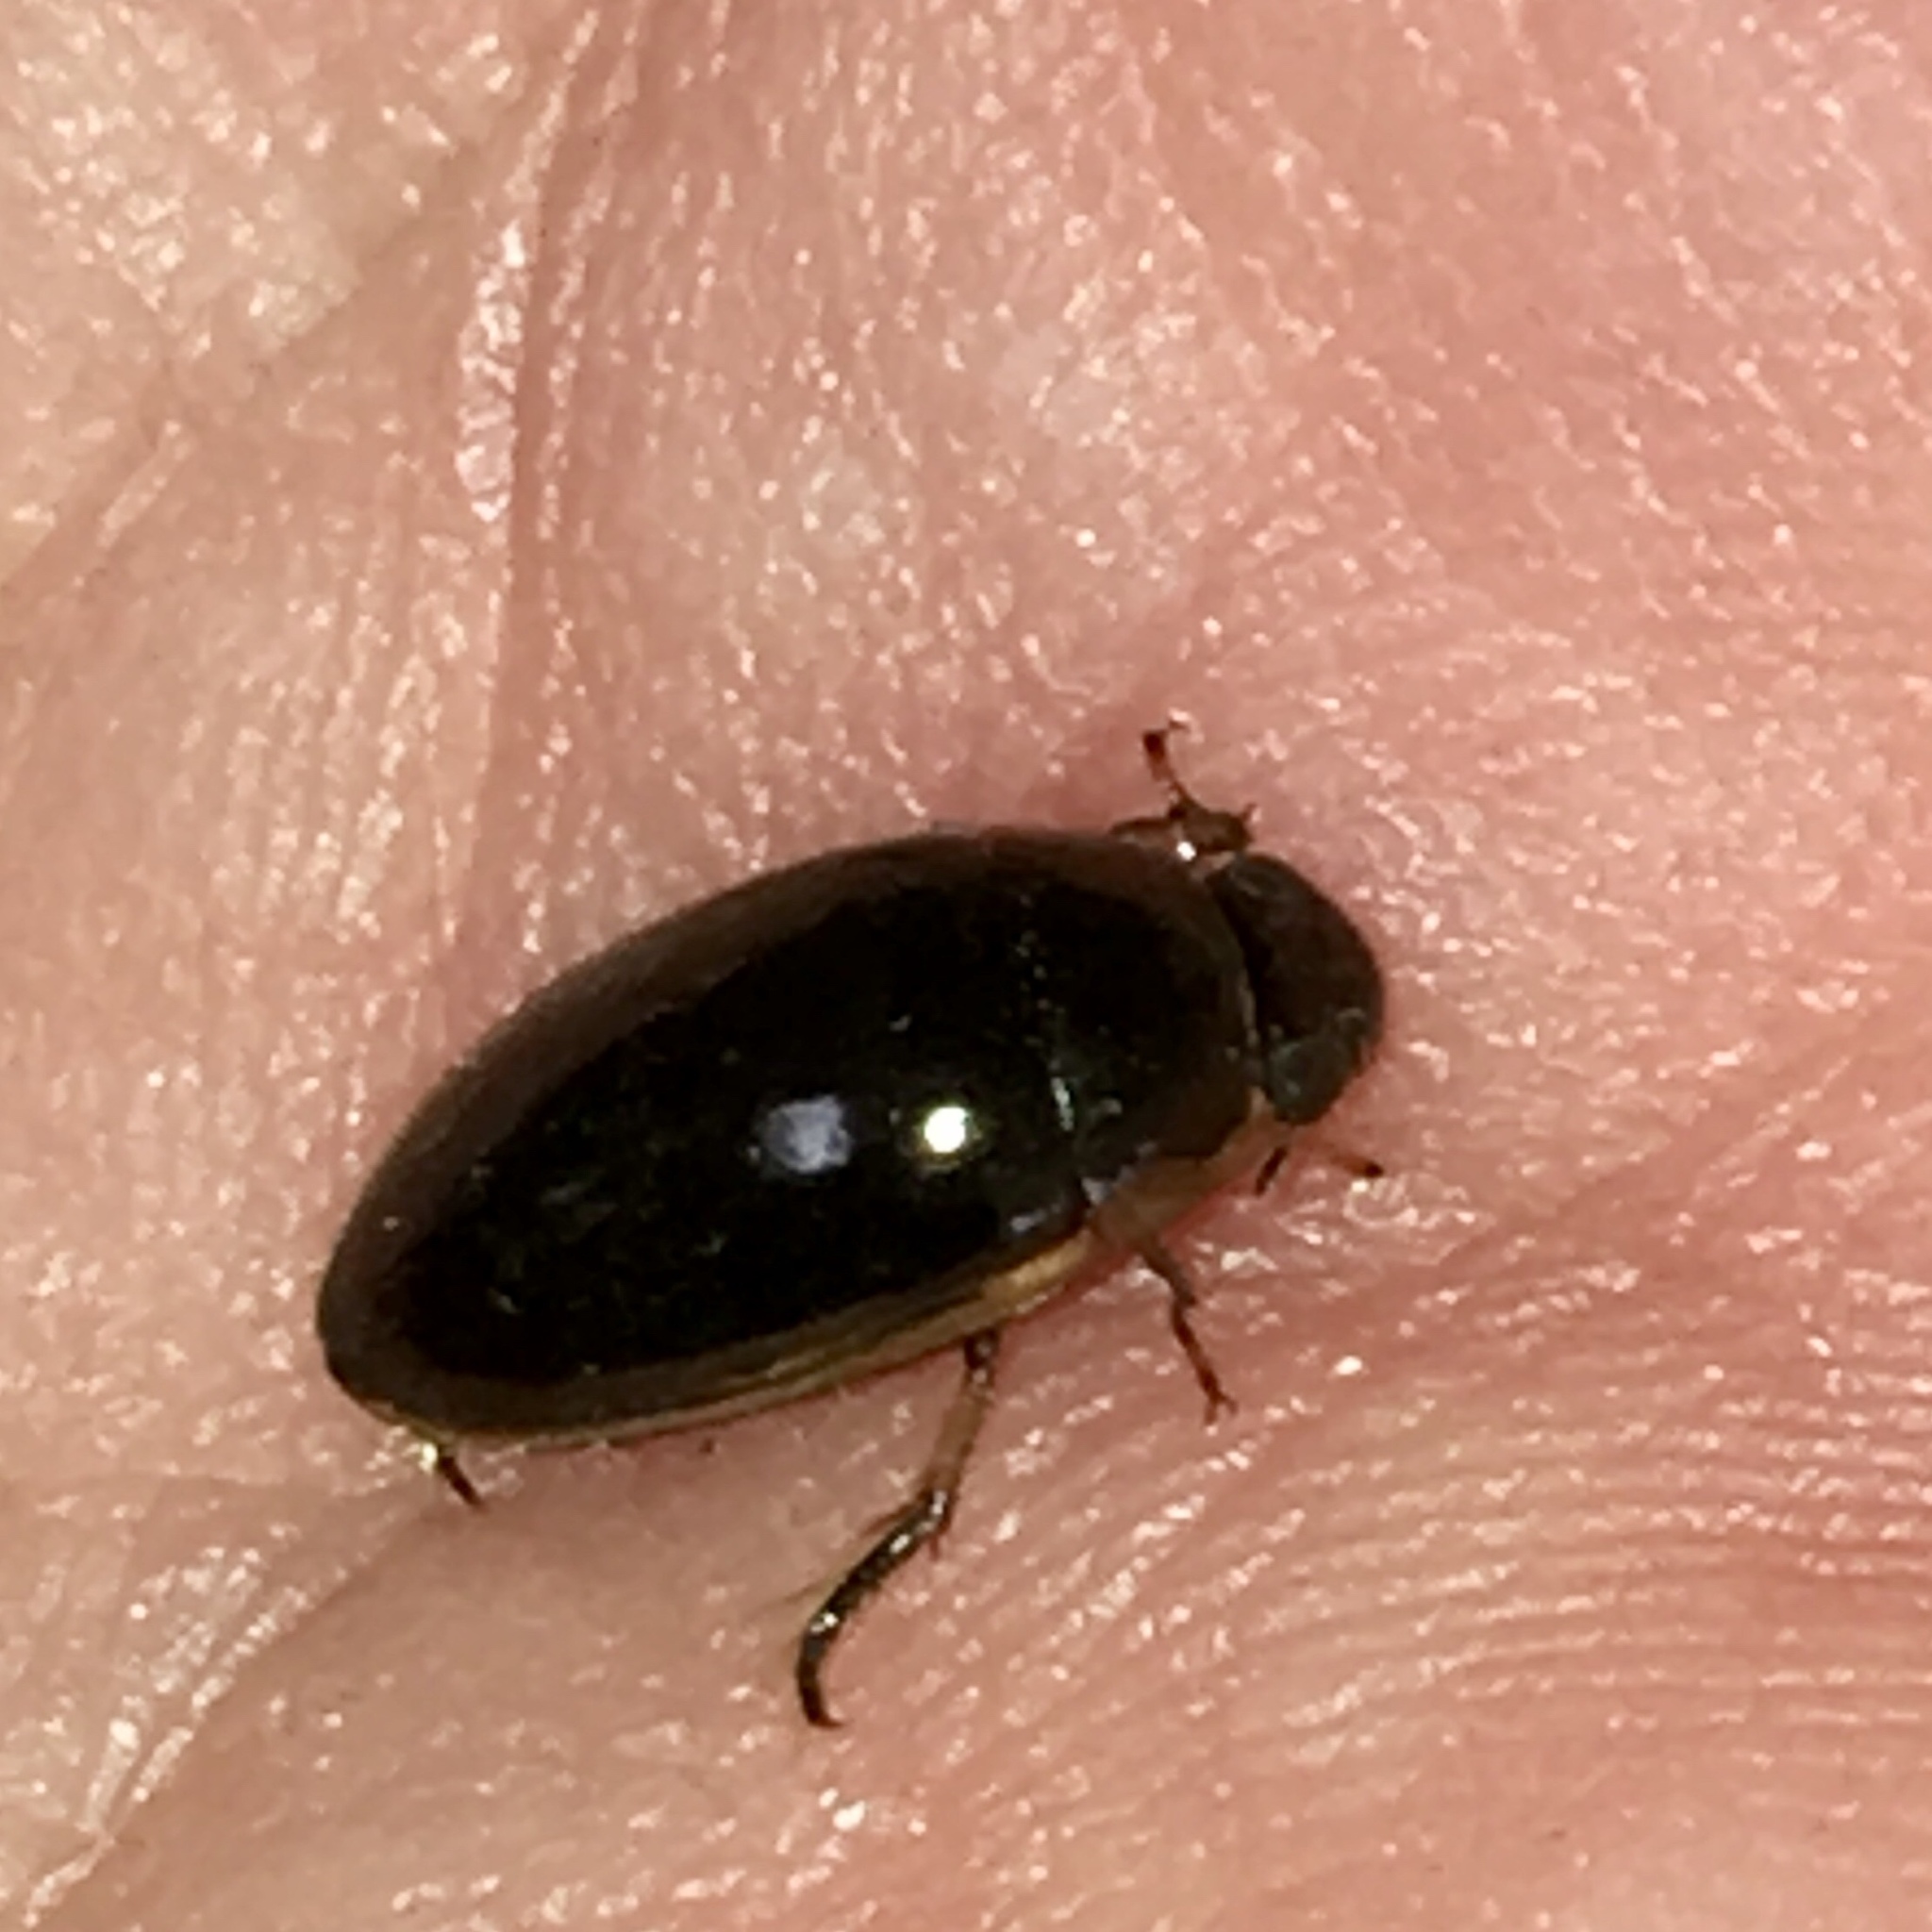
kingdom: Animalia
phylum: Arthropoda
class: Insecta
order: Coleoptera
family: Hydrophilidae
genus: Tropisternus
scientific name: Tropisternus lateralis
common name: Lateral-banded water scavenger beetle
